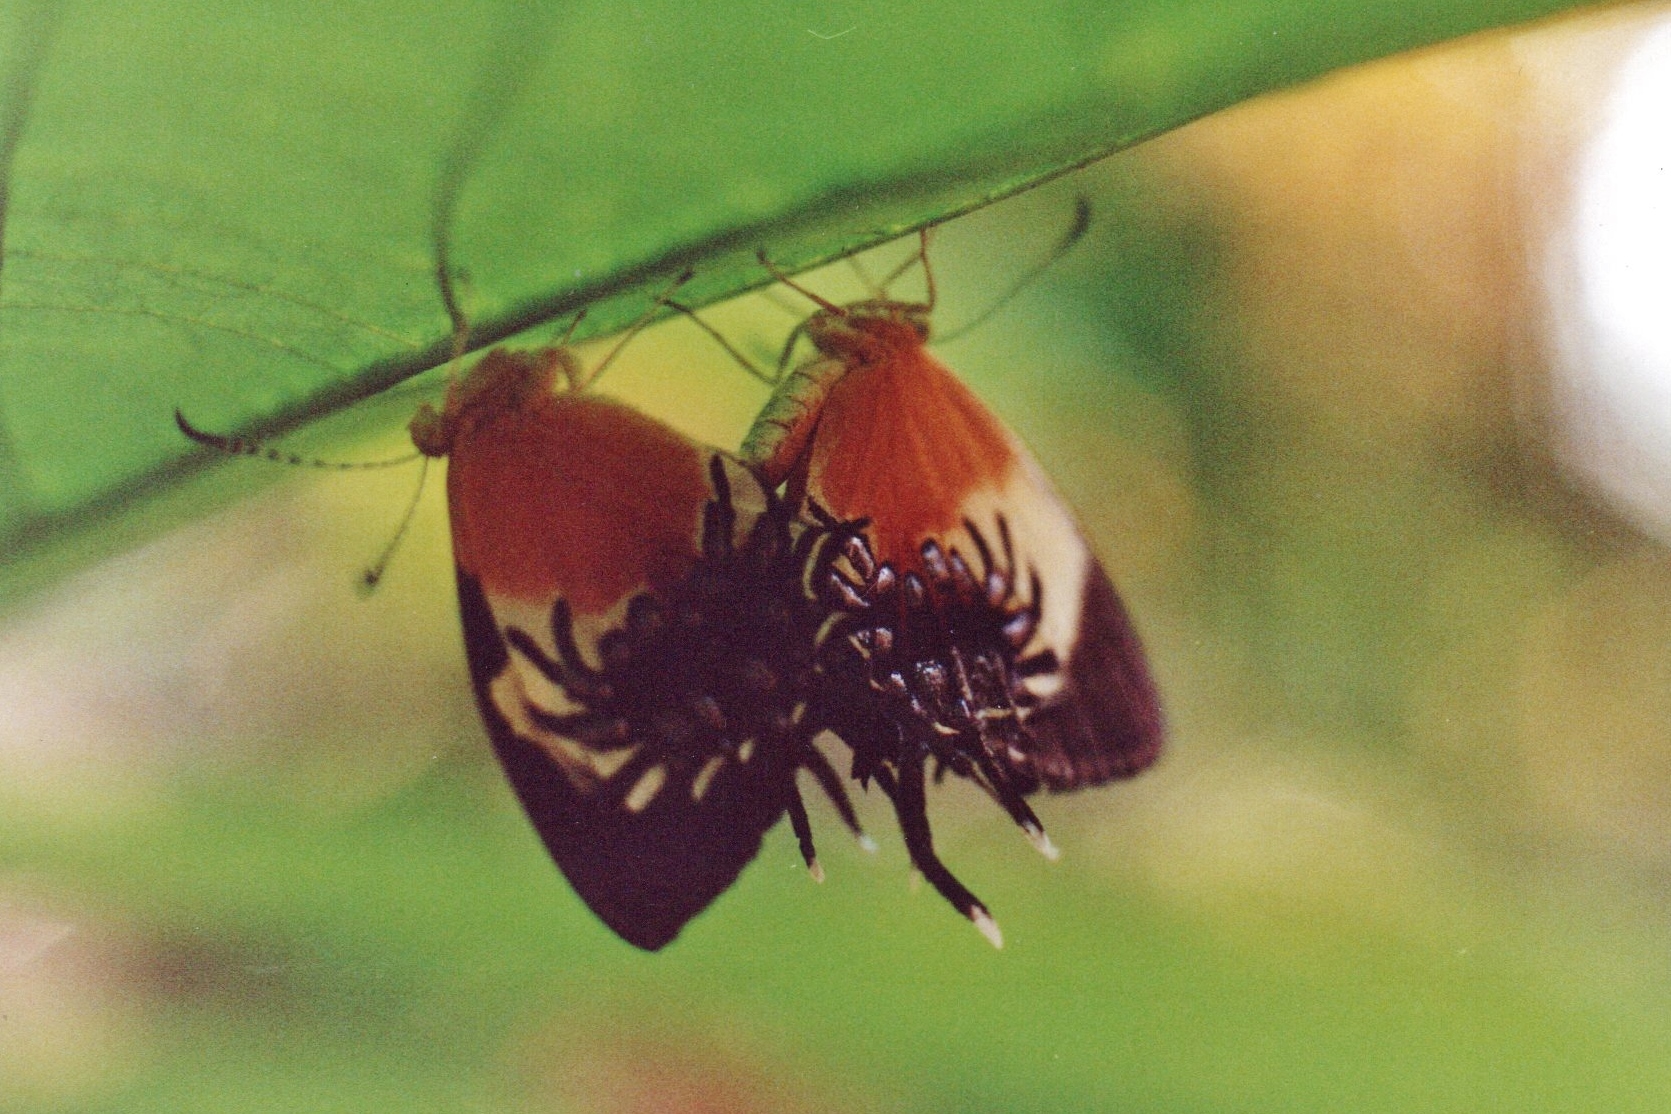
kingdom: Animalia
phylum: Arthropoda
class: Insecta
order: Lepidoptera
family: Riodinidae
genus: Helicopis
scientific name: Helicopis gnidus
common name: Gnidus metalmark
